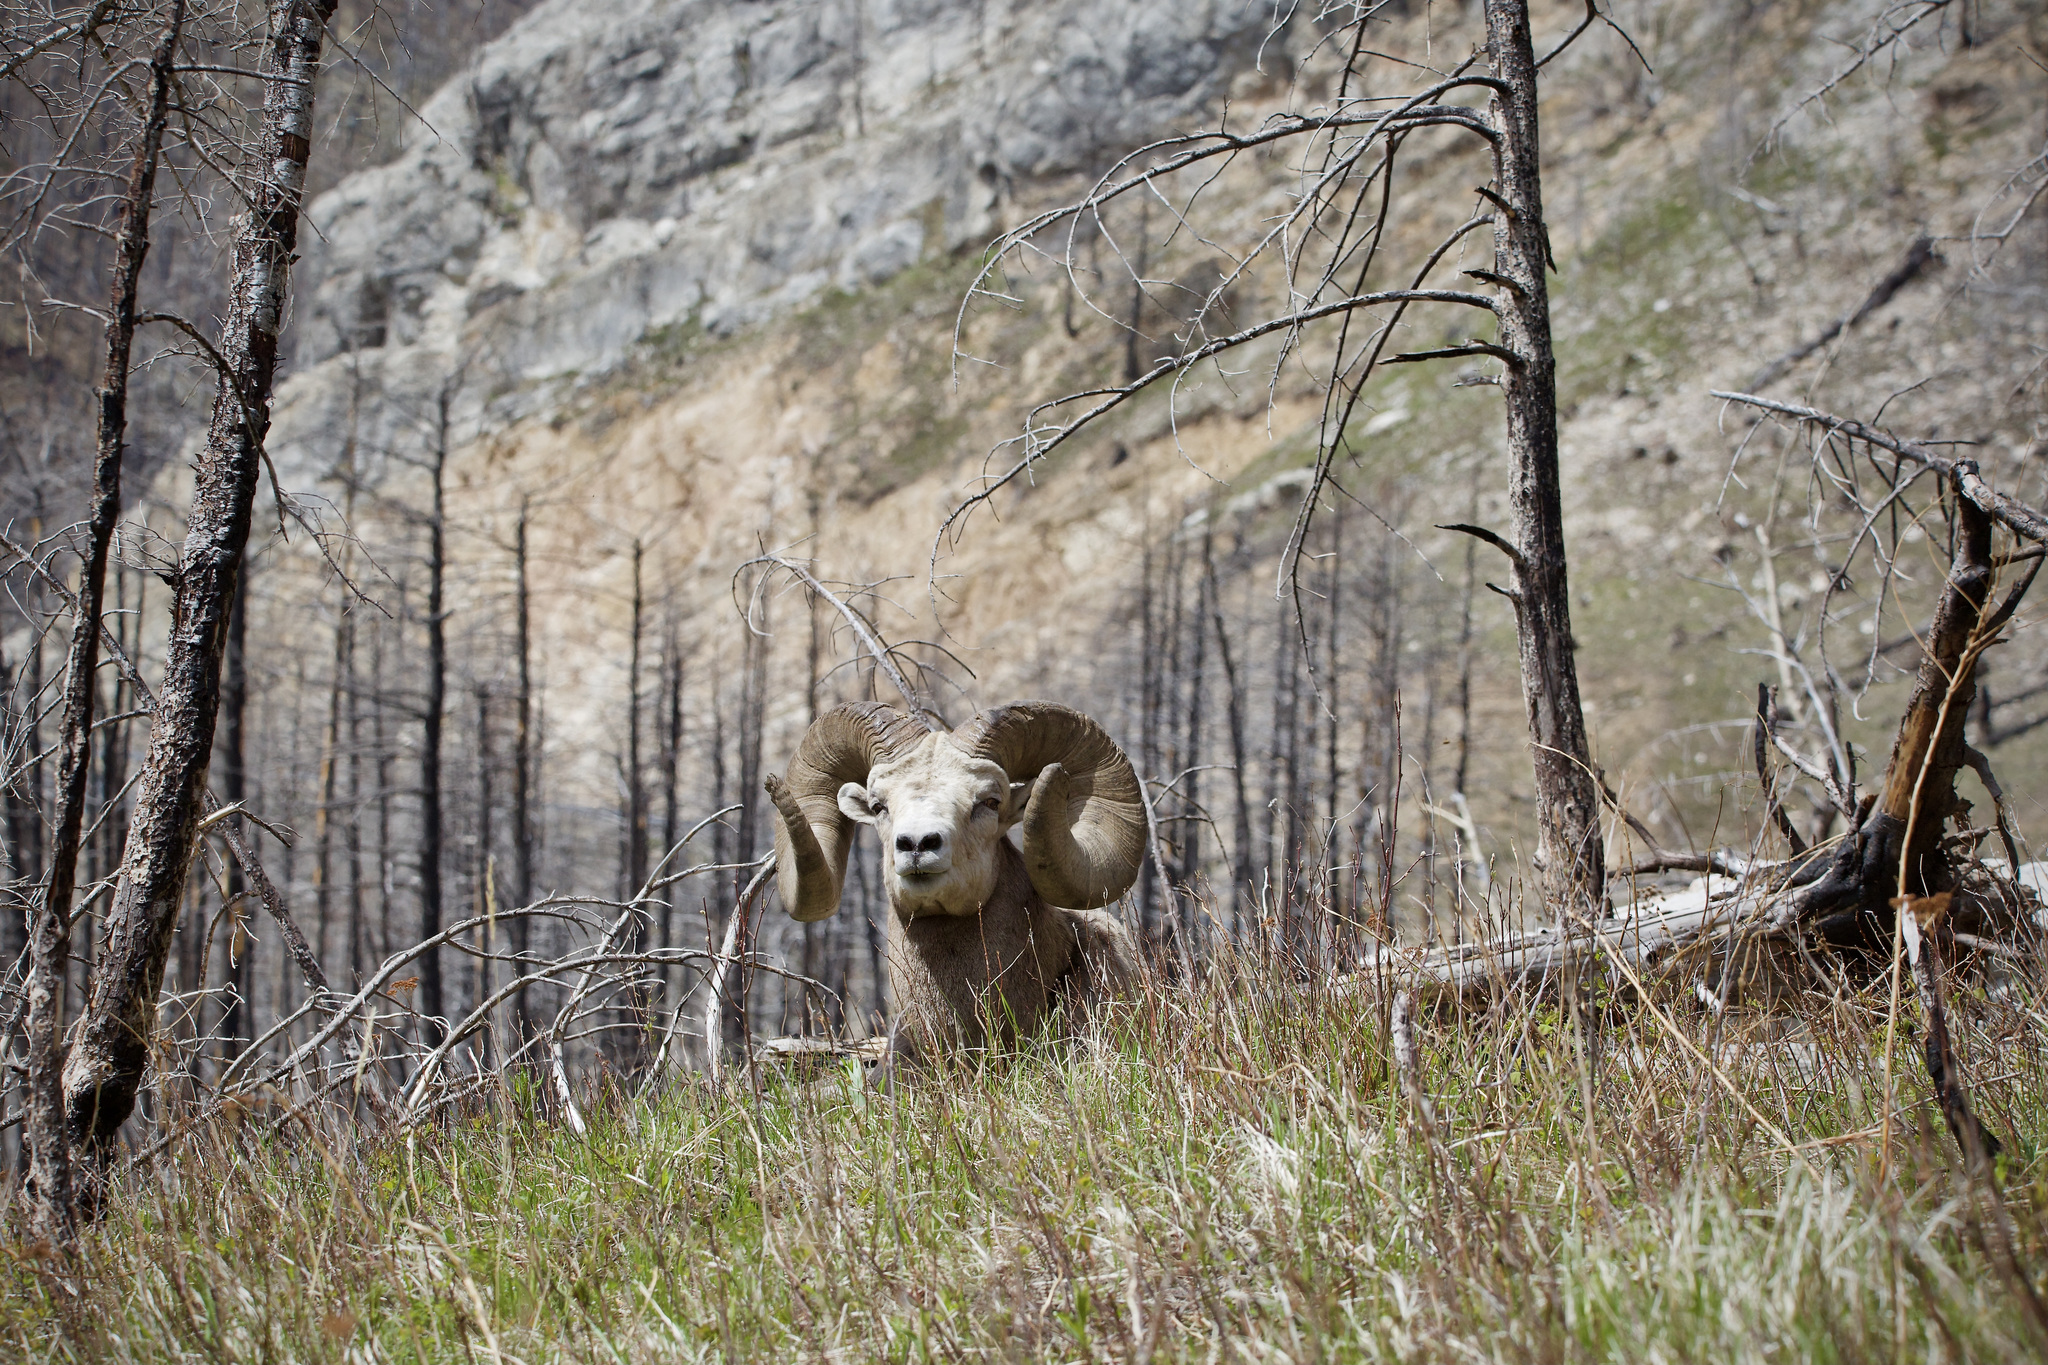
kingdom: Animalia
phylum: Chordata
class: Mammalia
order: Artiodactyla
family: Bovidae
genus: Ovis
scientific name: Ovis canadensis
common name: Bighorn sheep
